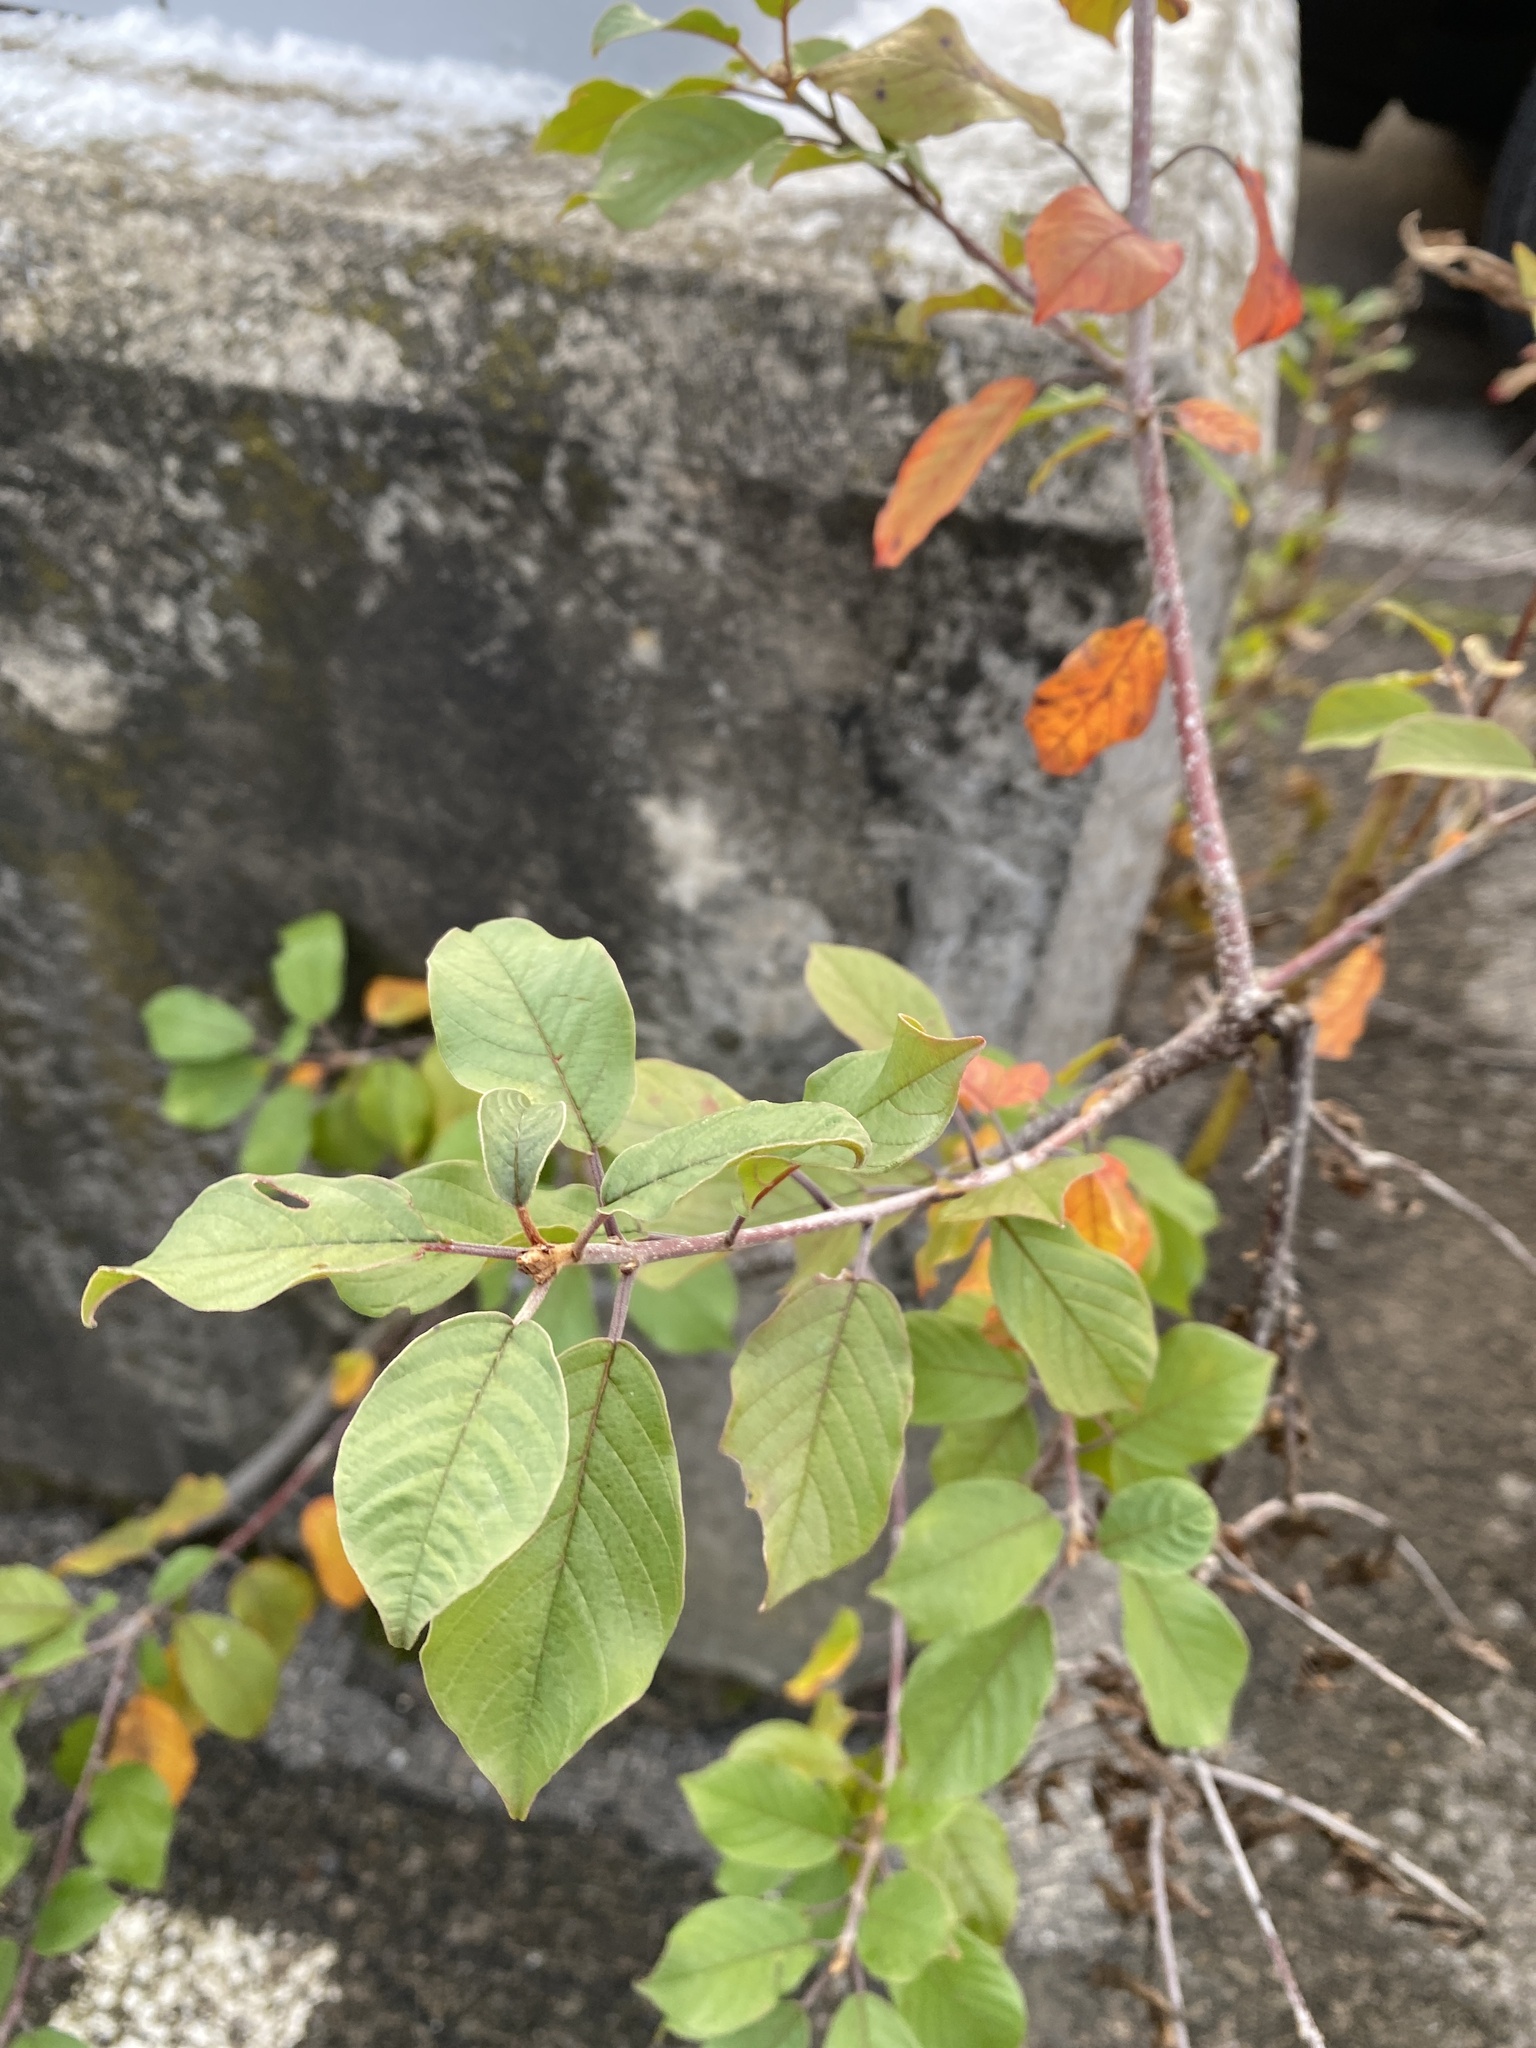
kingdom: Plantae
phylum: Tracheophyta
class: Magnoliopsida
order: Rosales
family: Rhamnaceae
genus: Frangula
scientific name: Frangula alnus
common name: Alder buckthorn
